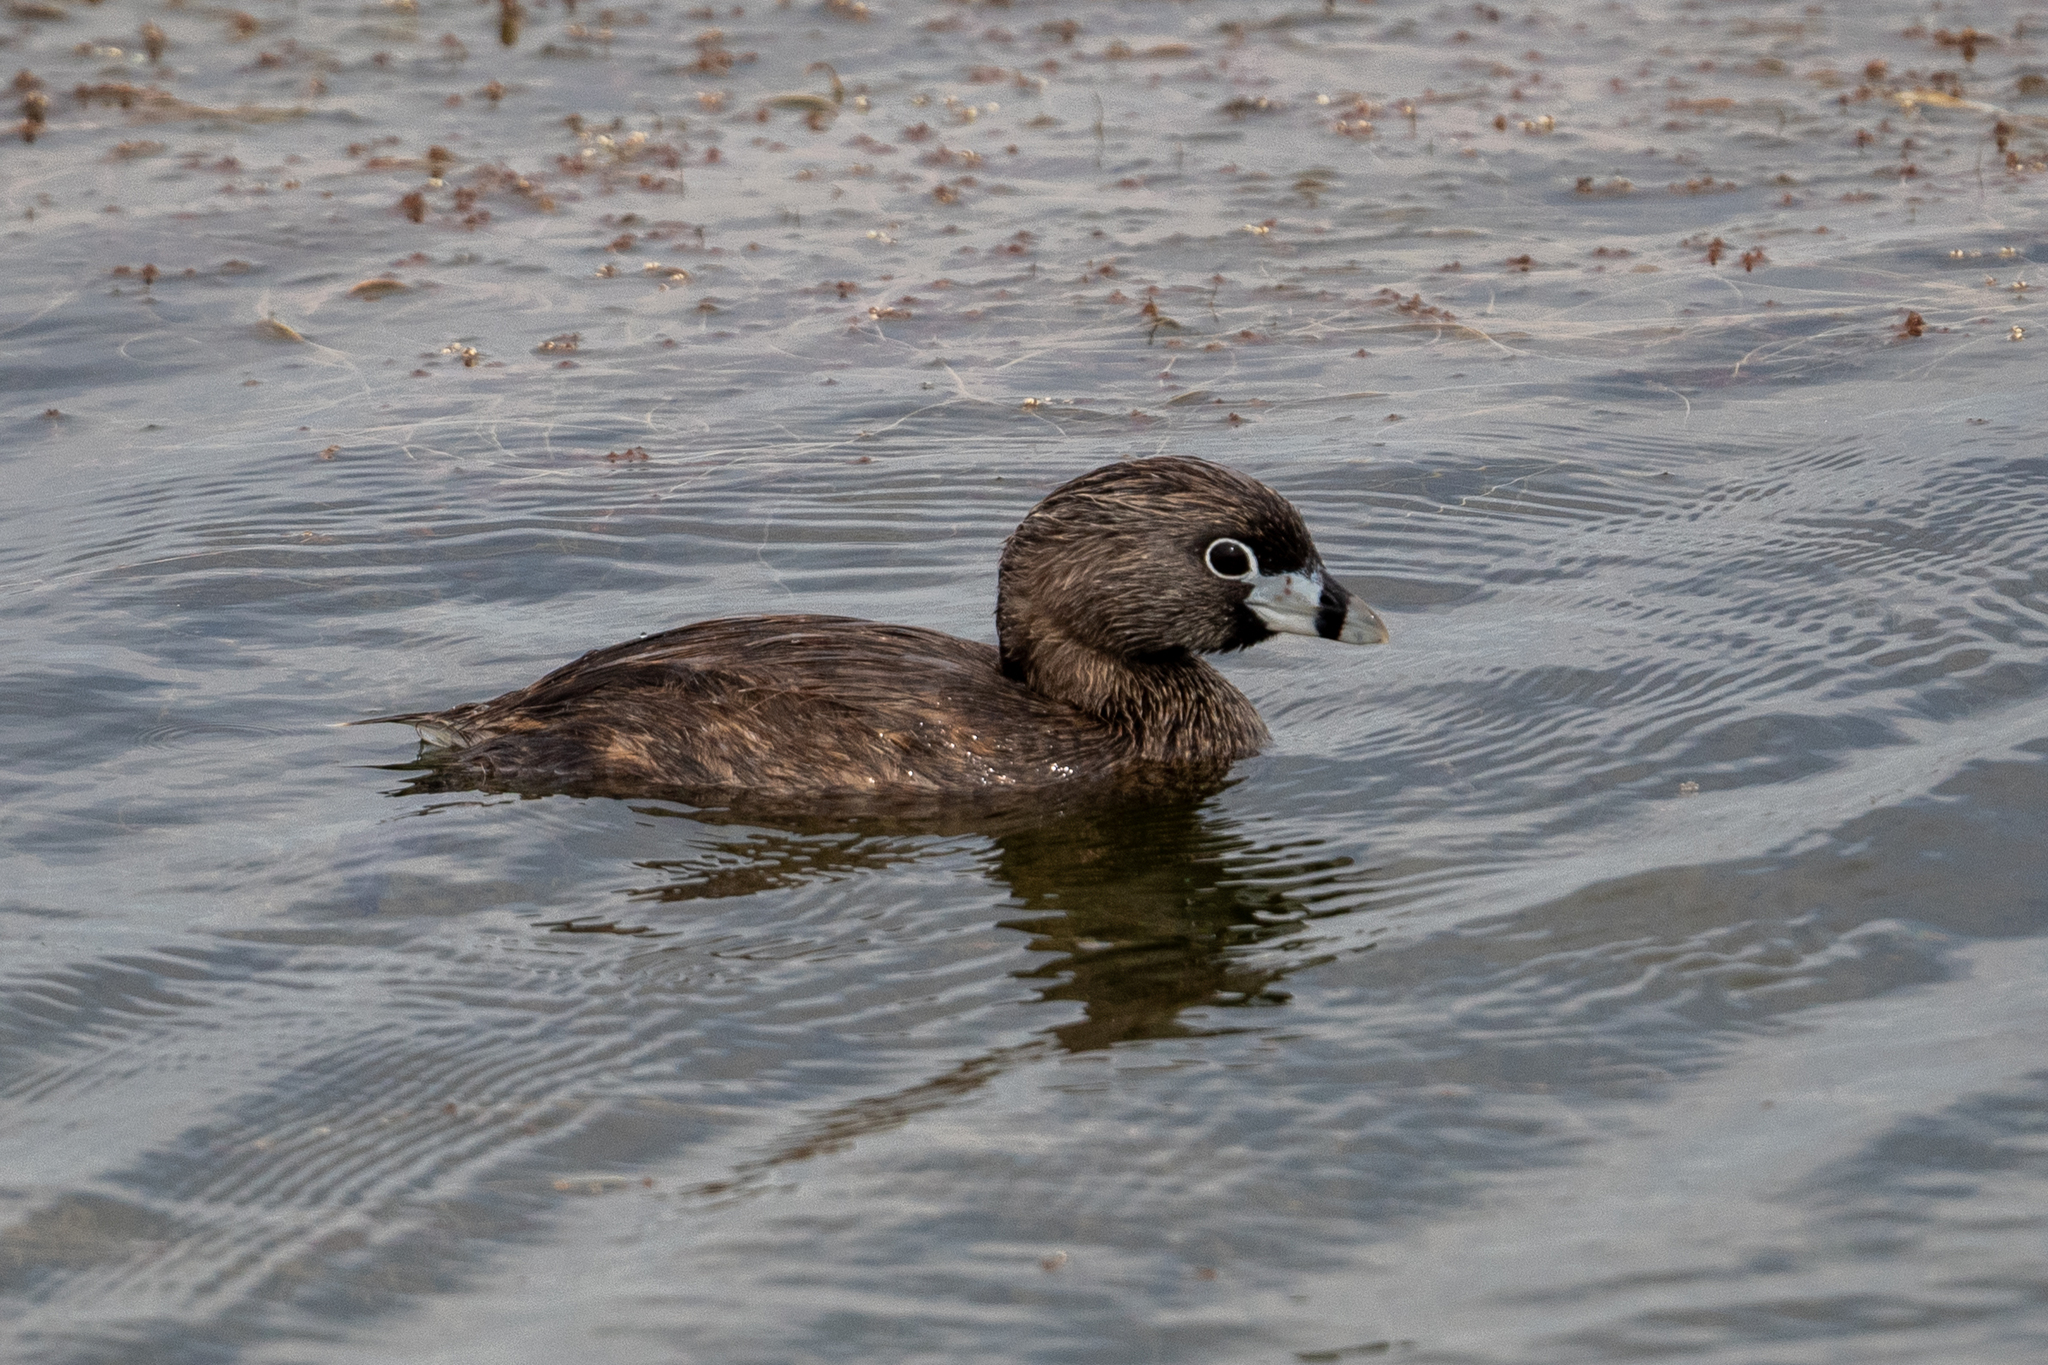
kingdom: Animalia
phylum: Chordata
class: Aves
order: Podicipediformes
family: Podicipedidae
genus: Podilymbus
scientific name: Podilymbus podiceps
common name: Pied-billed grebe
